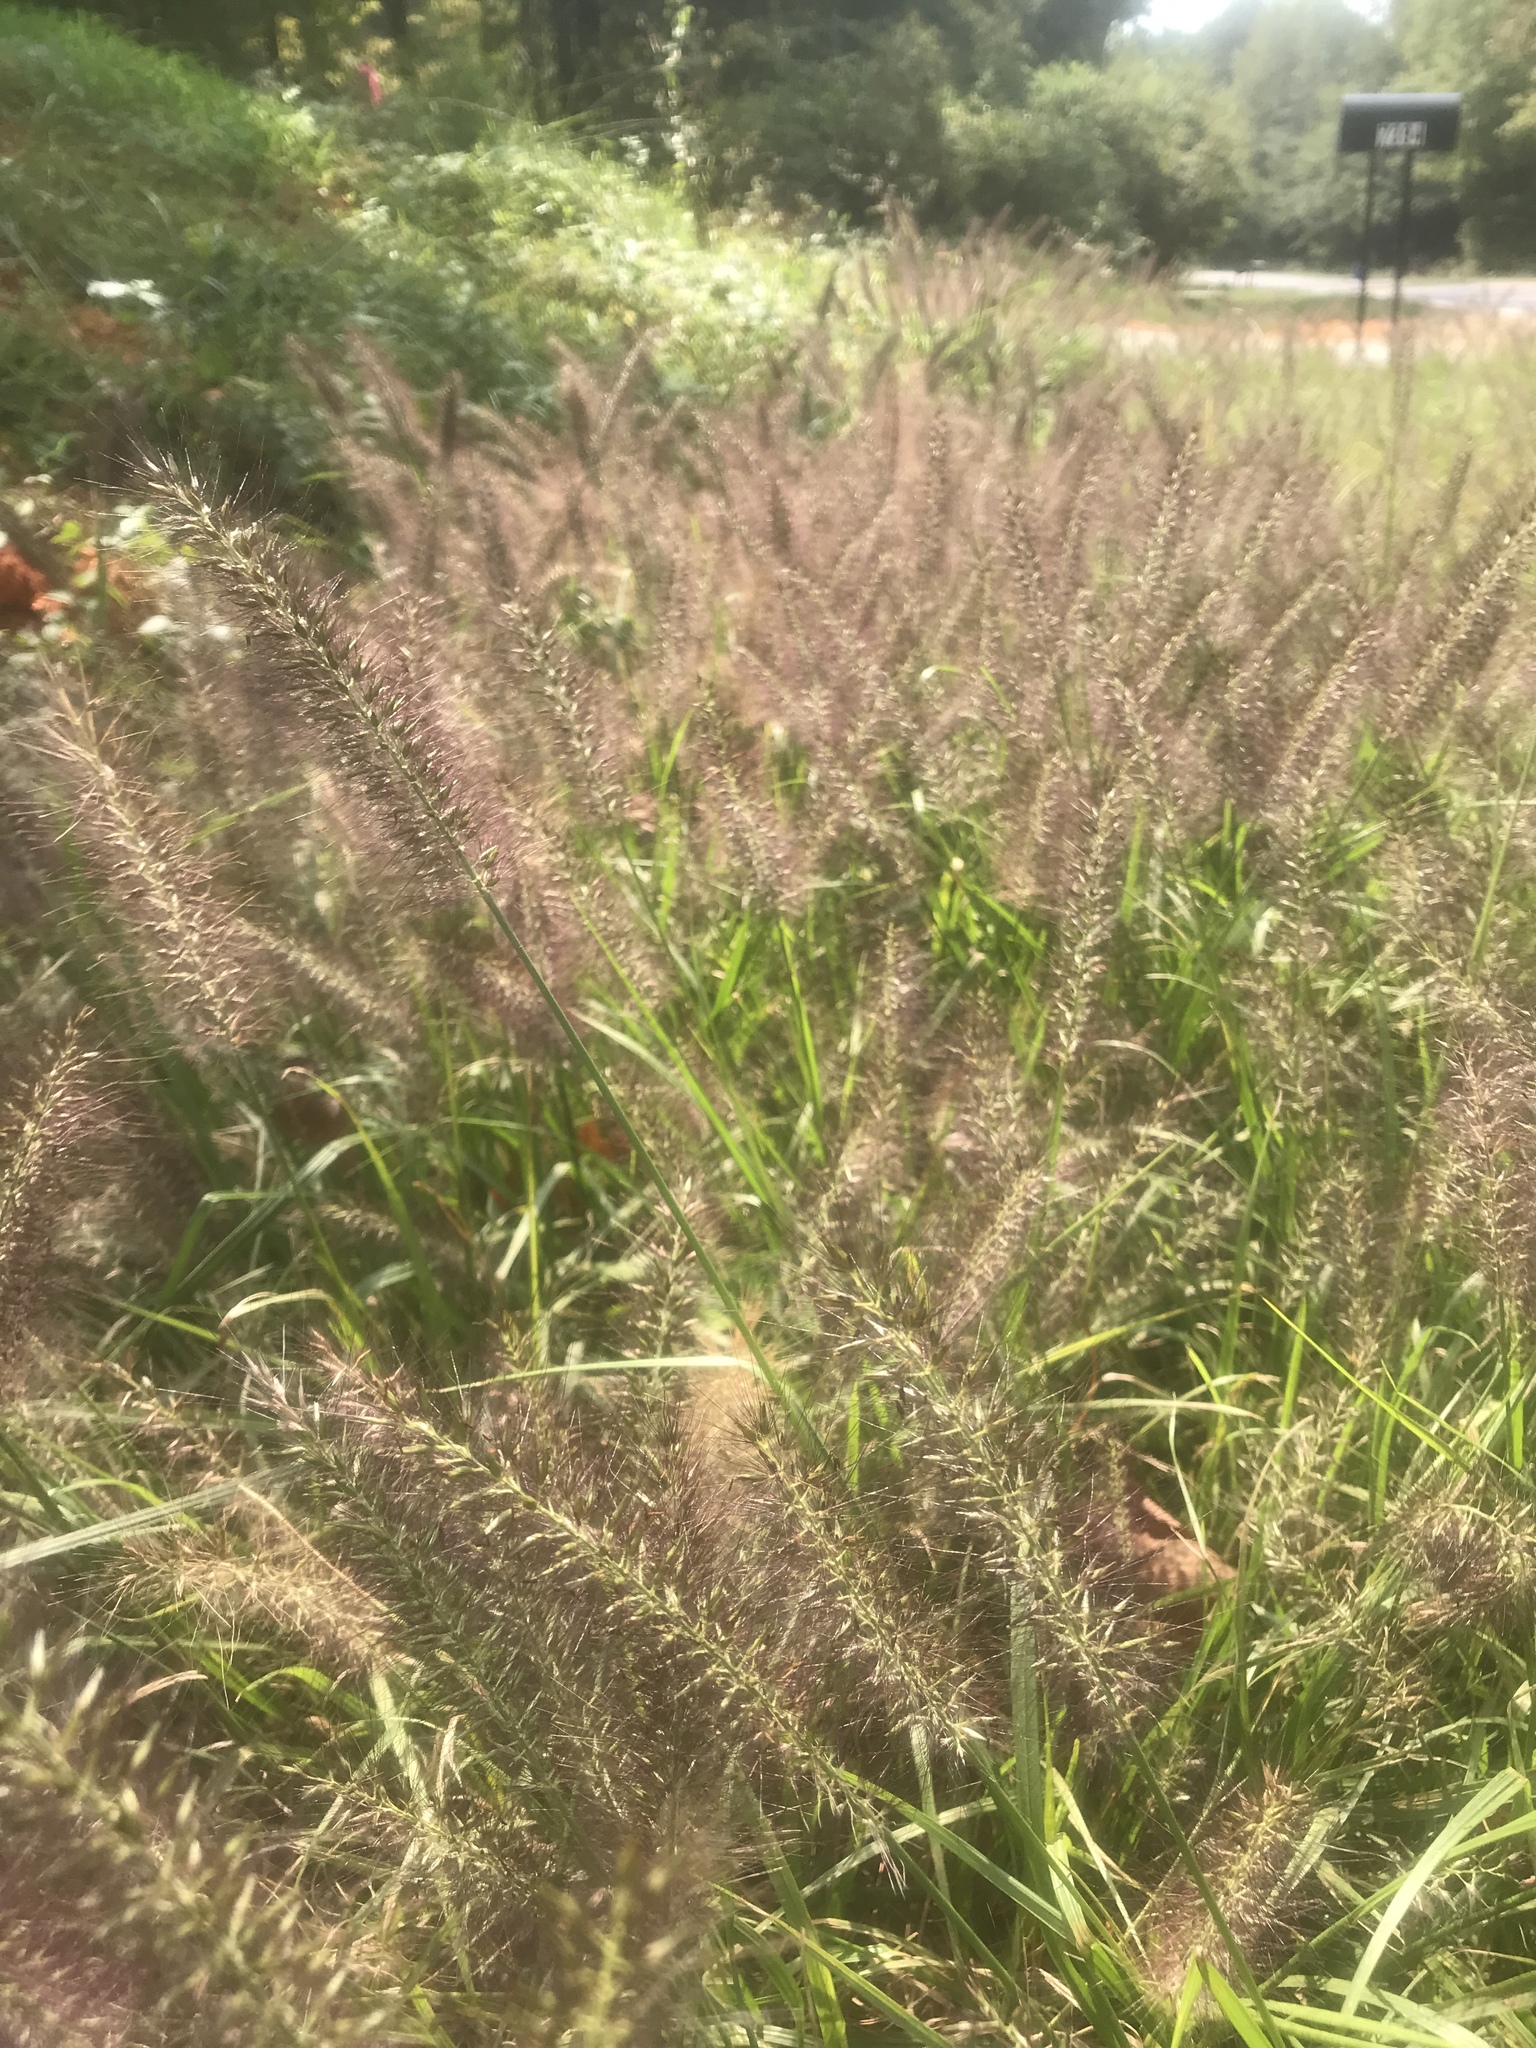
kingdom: Plantae
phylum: Tracheophyta
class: Liliopsida
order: Poales
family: Poaceae
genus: Cenchrus
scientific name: Cenchrus alopecuroides
